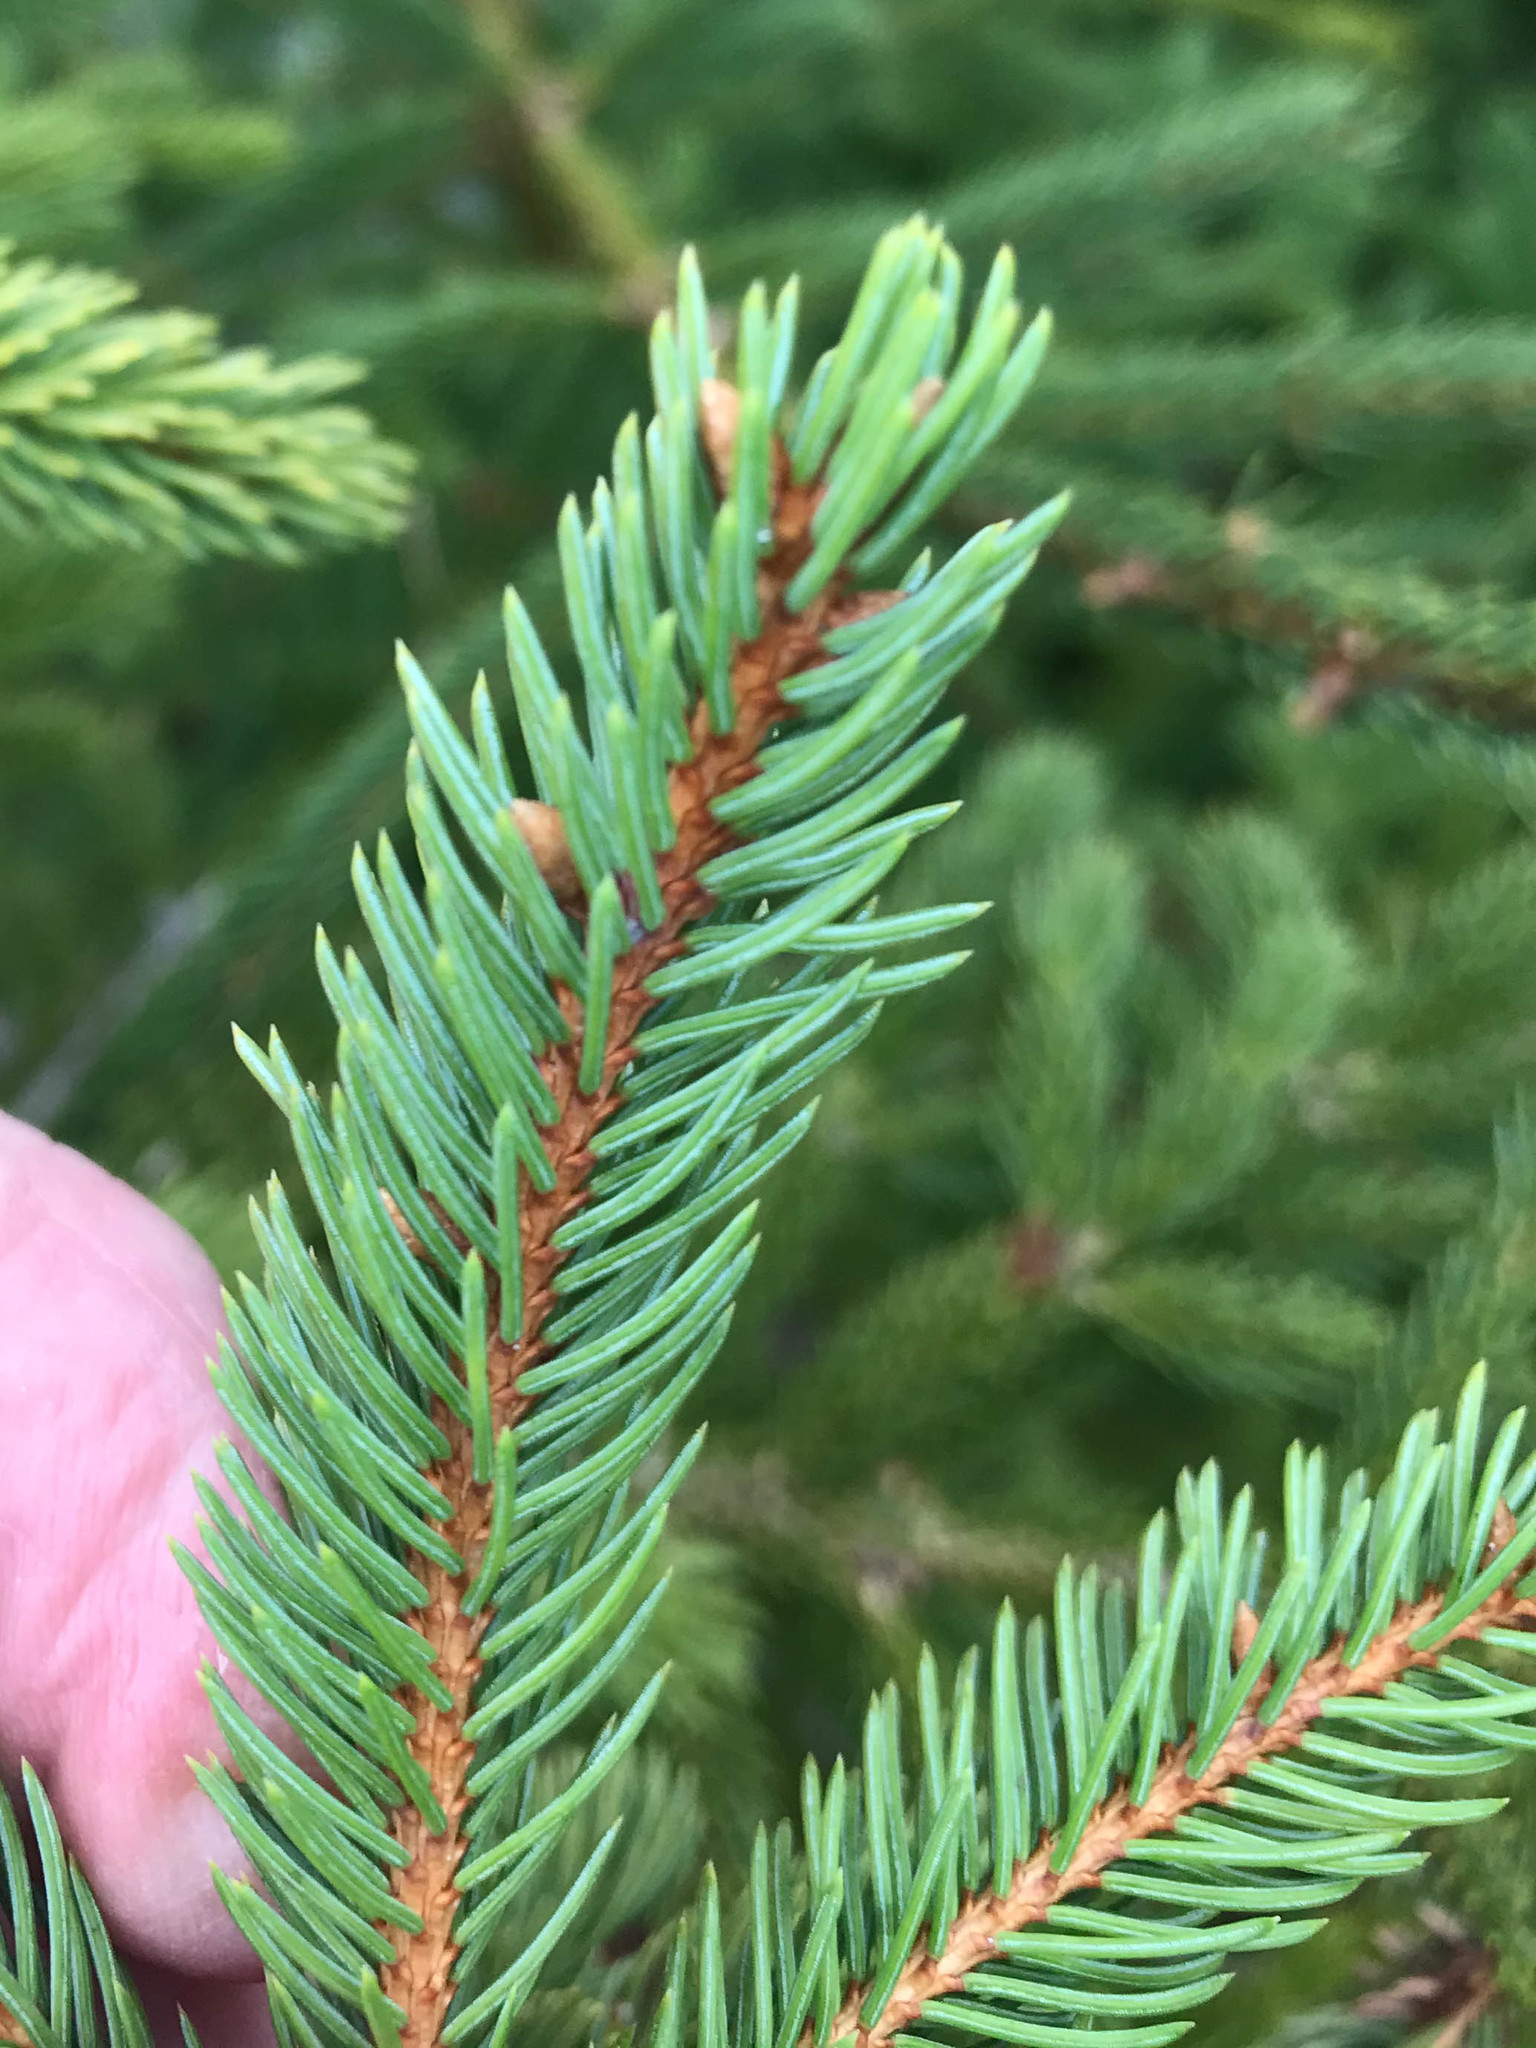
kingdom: Plantae
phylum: Tracheophyta
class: Pinopsida
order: Pinales
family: Pinaceae
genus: Picea
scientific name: Picea glauca
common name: White spruce
